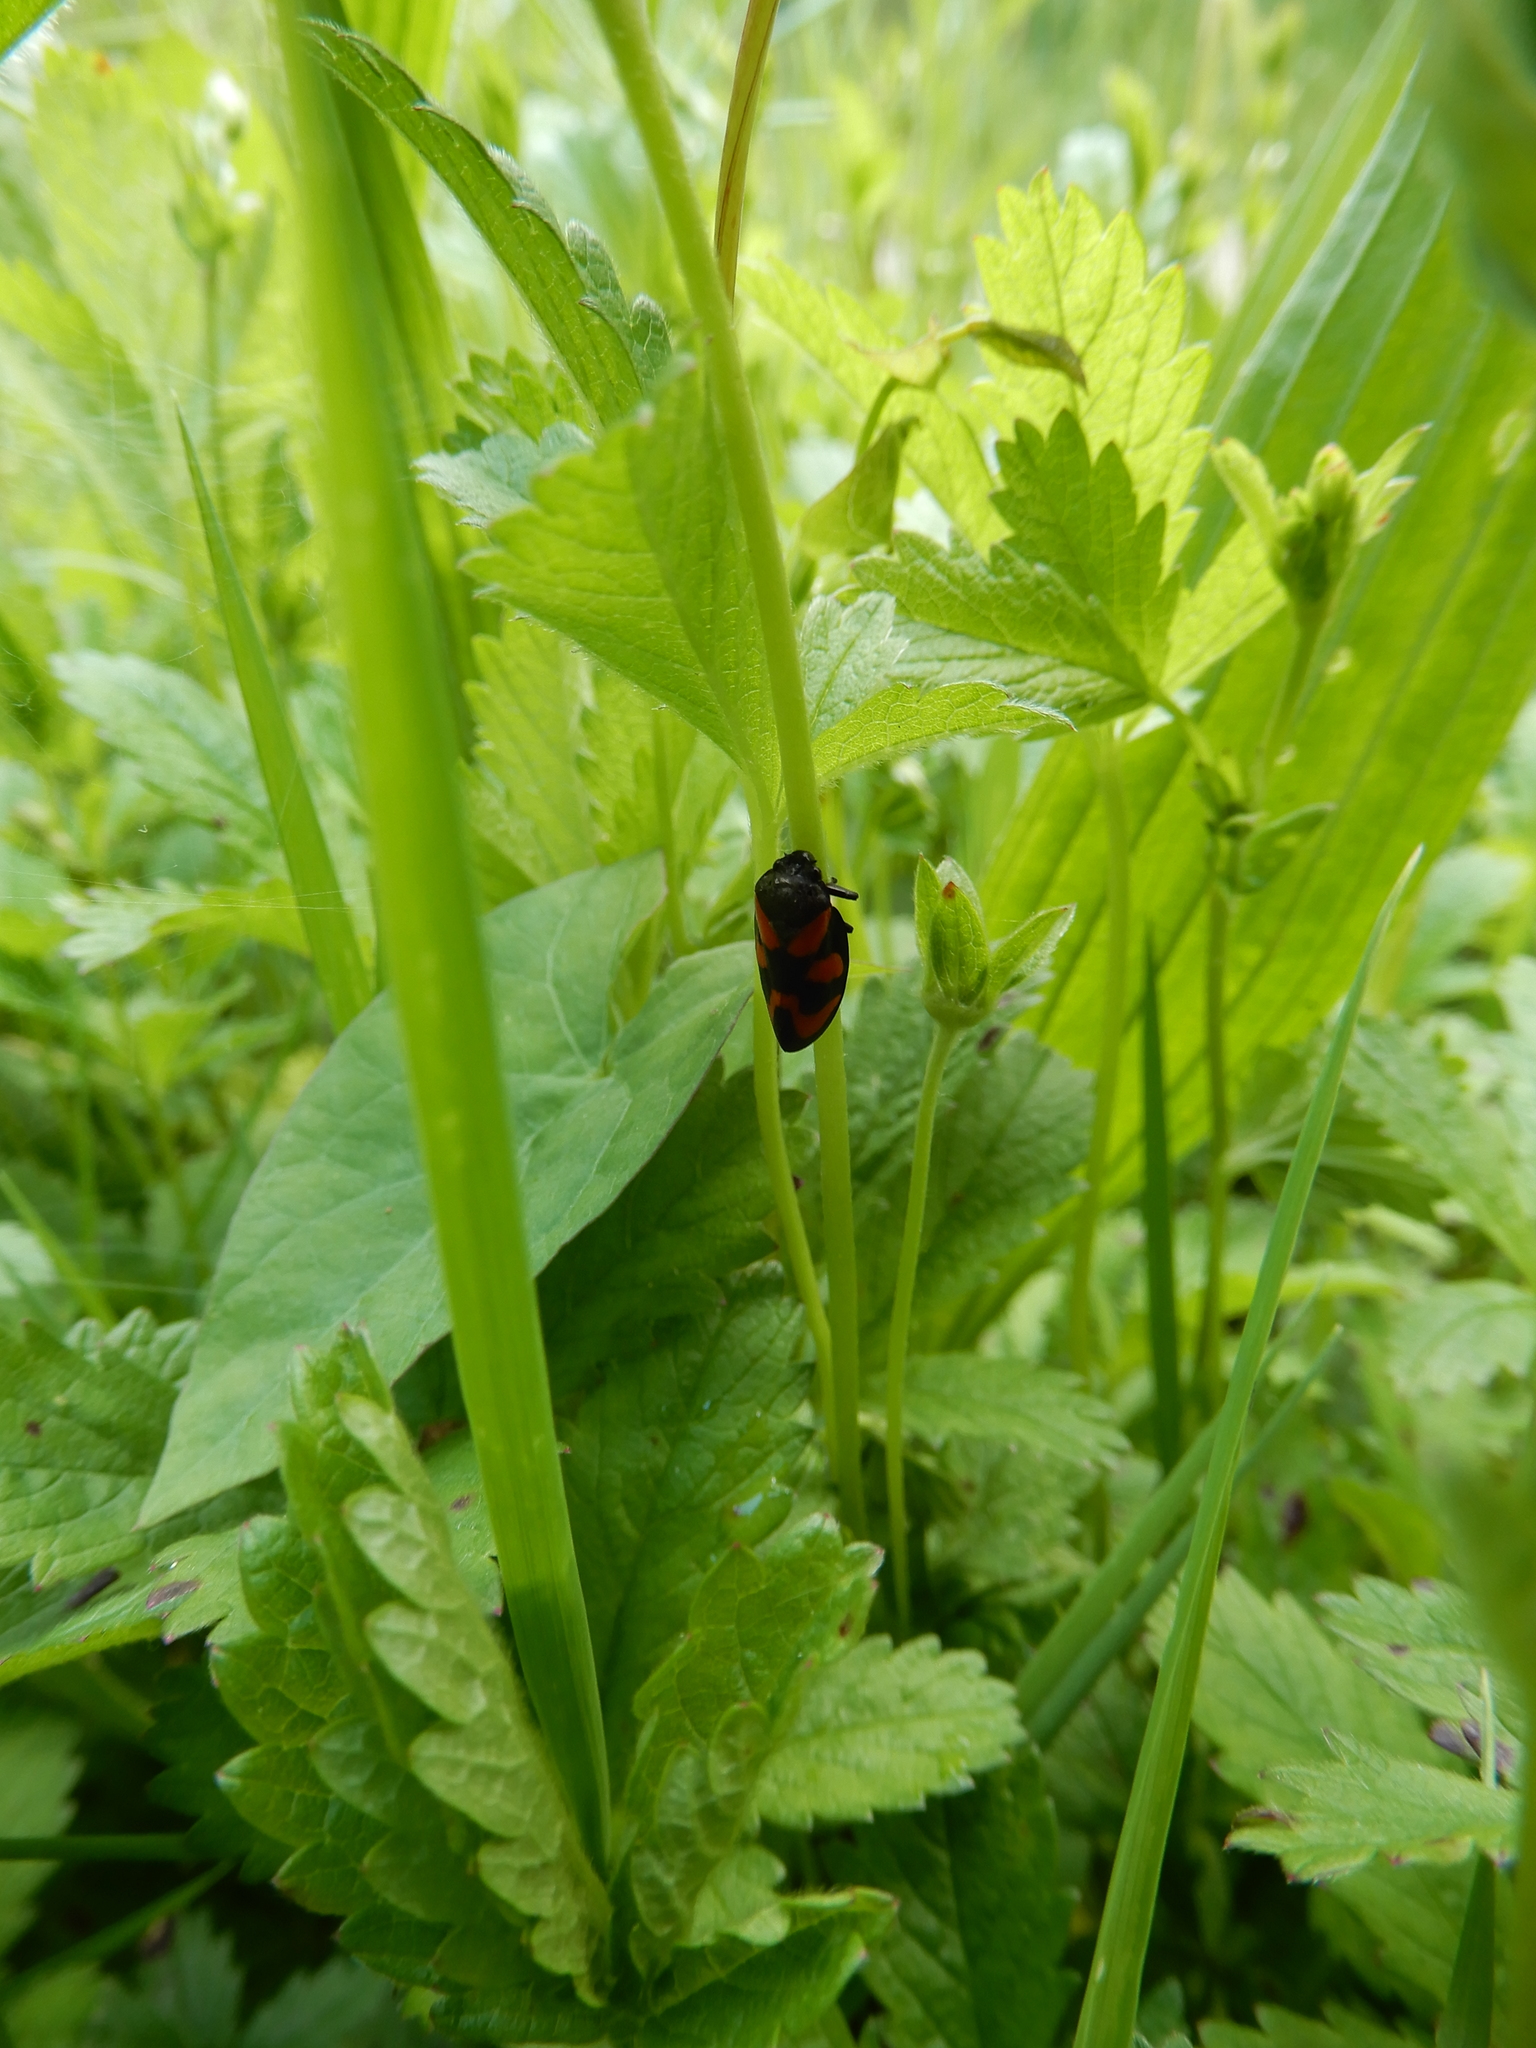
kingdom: Animalia
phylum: Arthropoda
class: Insecta
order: Hemiptera
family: Cercopidae
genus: Cercopis
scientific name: Cercopis vulnerata
